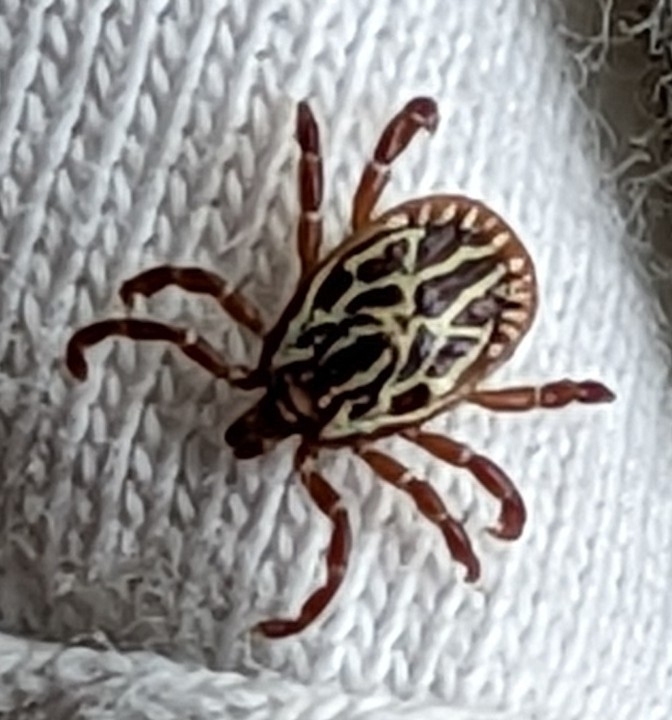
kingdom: Animalia
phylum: Arthropoda
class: Arachnida
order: Ixodida
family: Ixodidae
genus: Amblyomma
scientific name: Amblyomma maculatum
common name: Gulf coast tick
